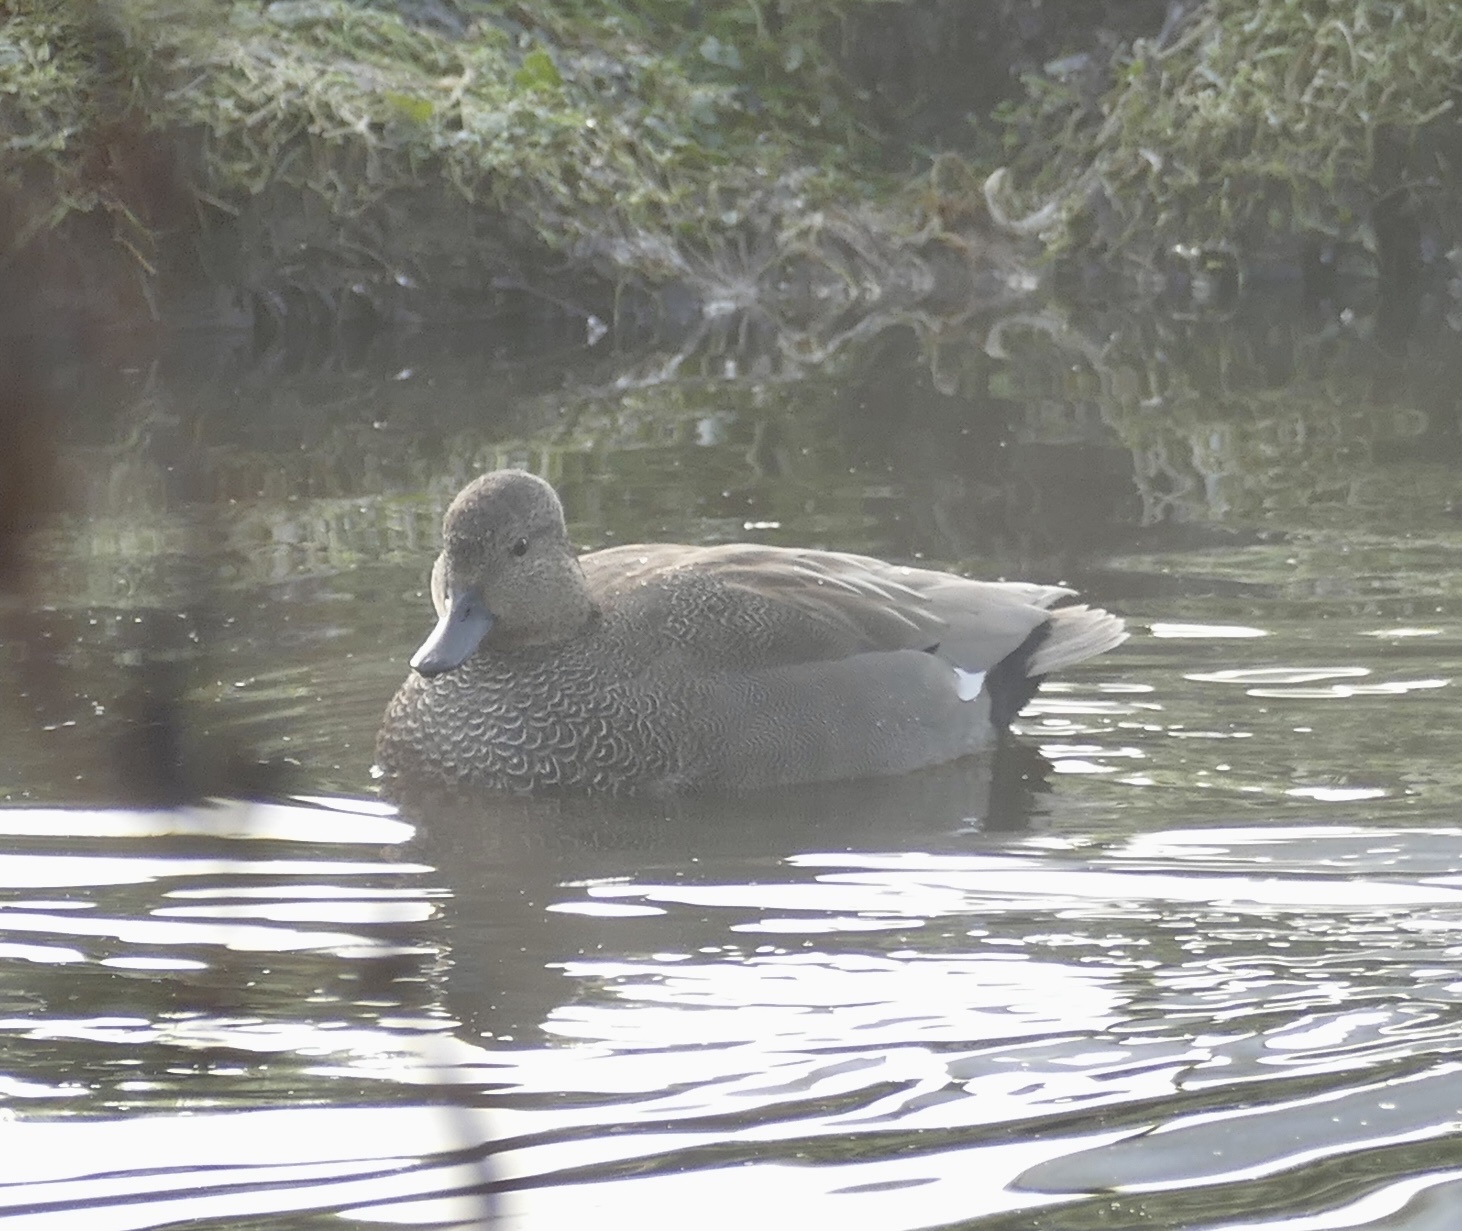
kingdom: Animalia
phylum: Chordata
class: Aves
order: Anseriformes
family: Anatidae
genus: Mareca
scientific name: Mareca strepera
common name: Gadwall
